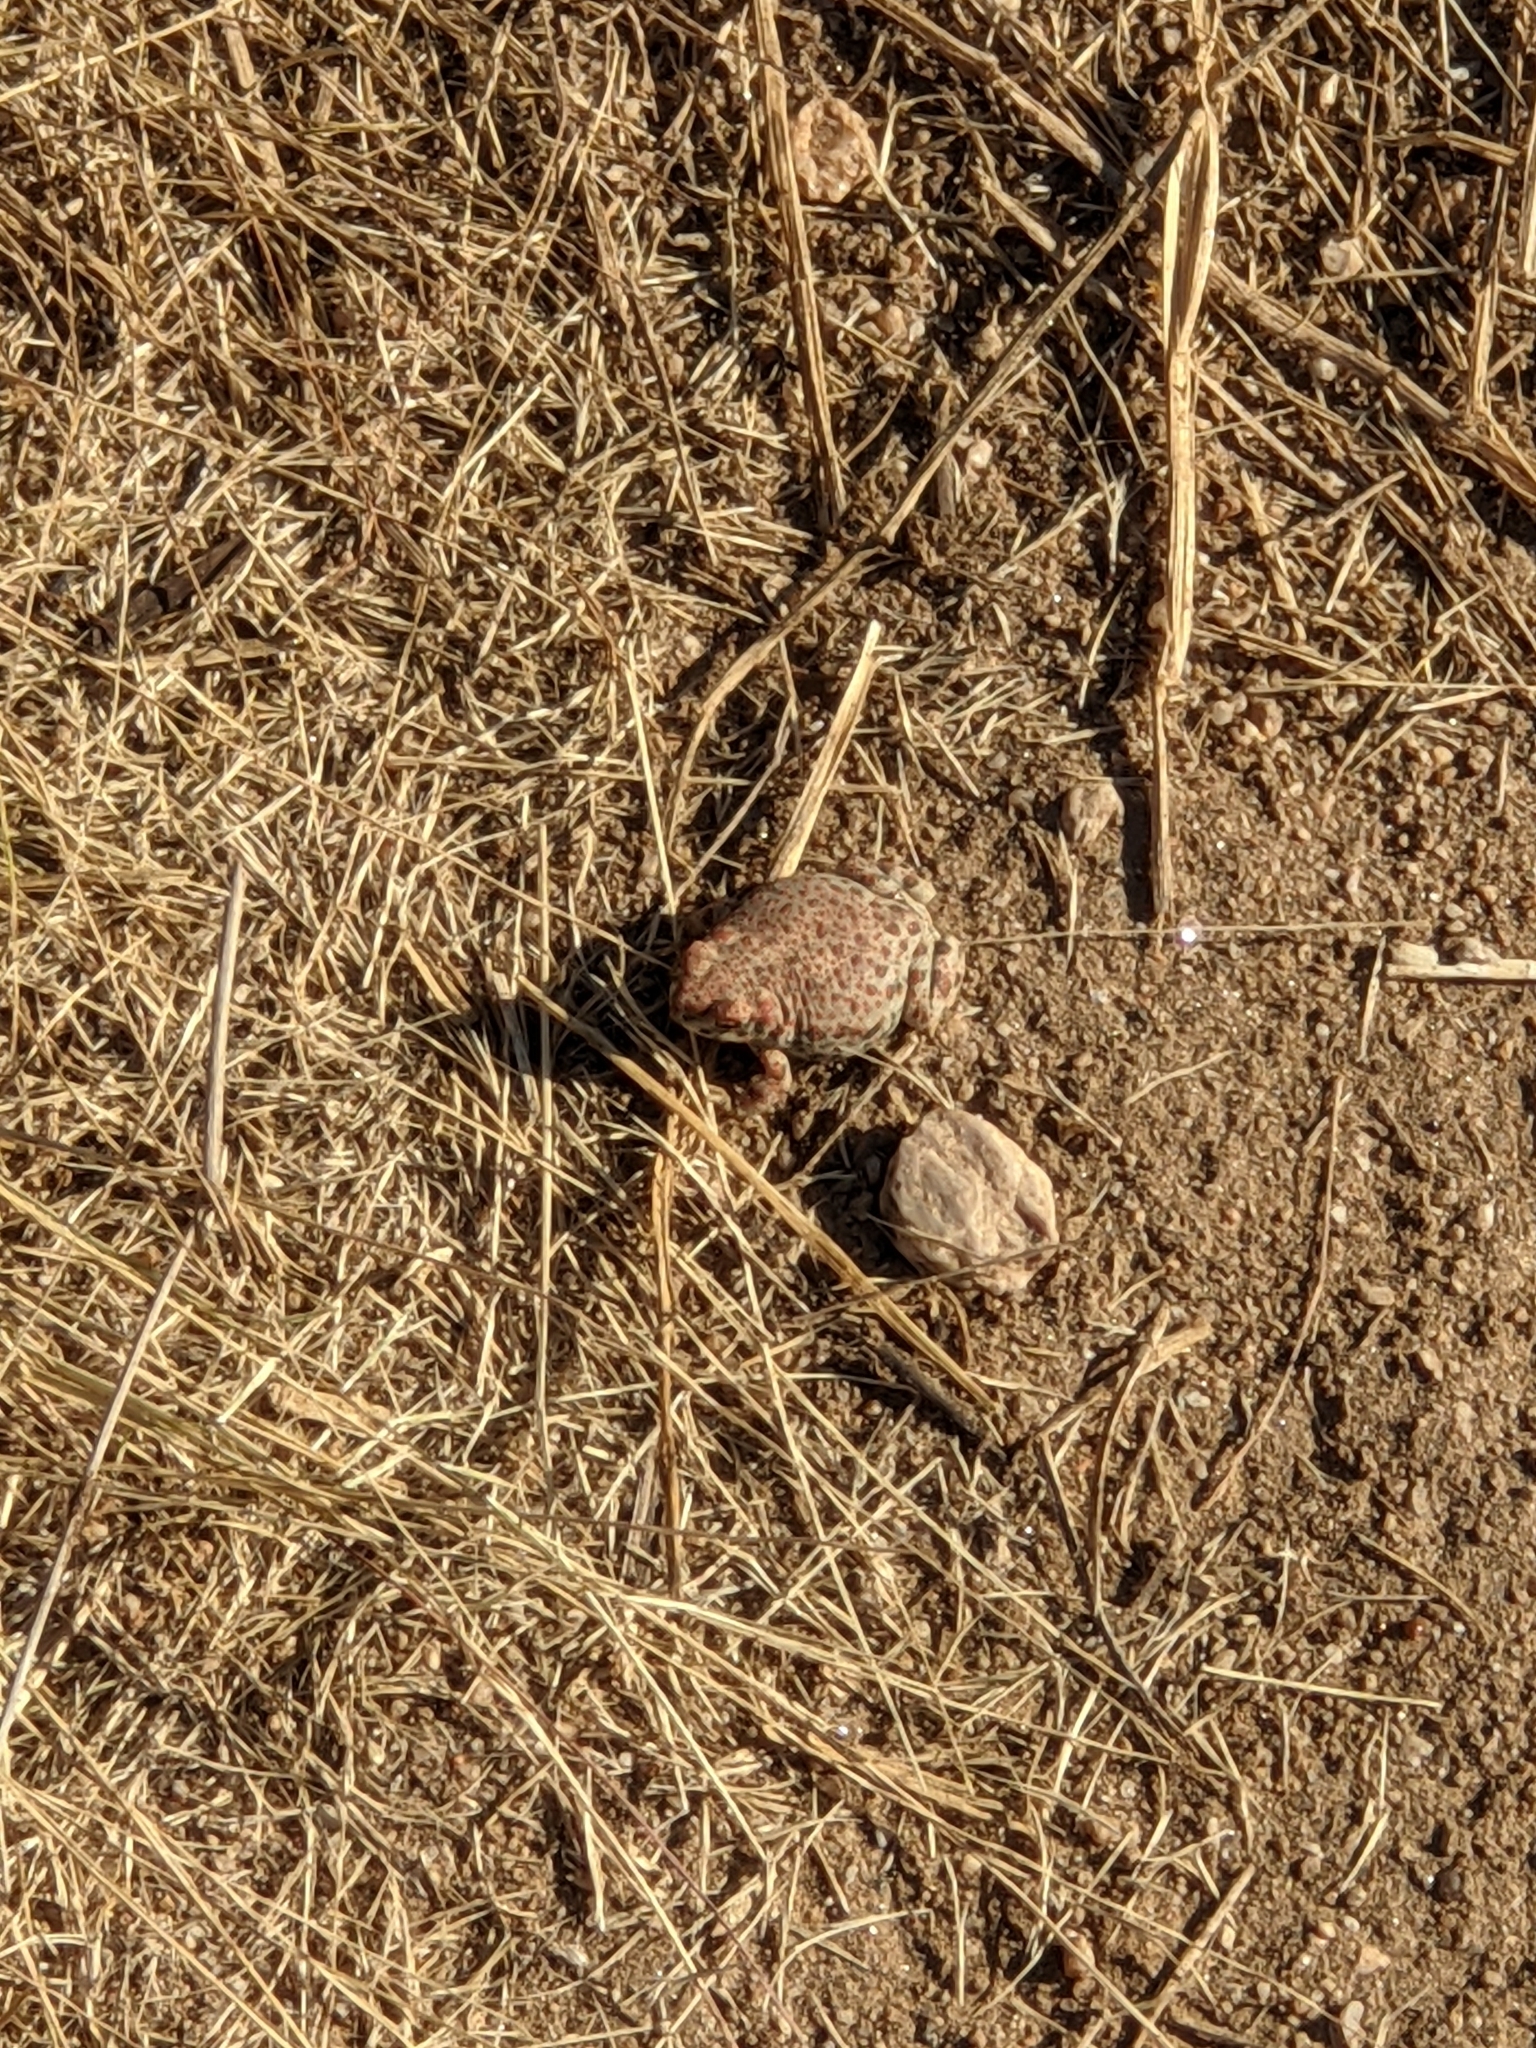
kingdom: Animalia
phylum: Chordata
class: Amphibia
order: Anura
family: Bufonidae
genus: Anaxyrus
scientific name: Anaxyrus punctatus
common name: Red-spotted toad
